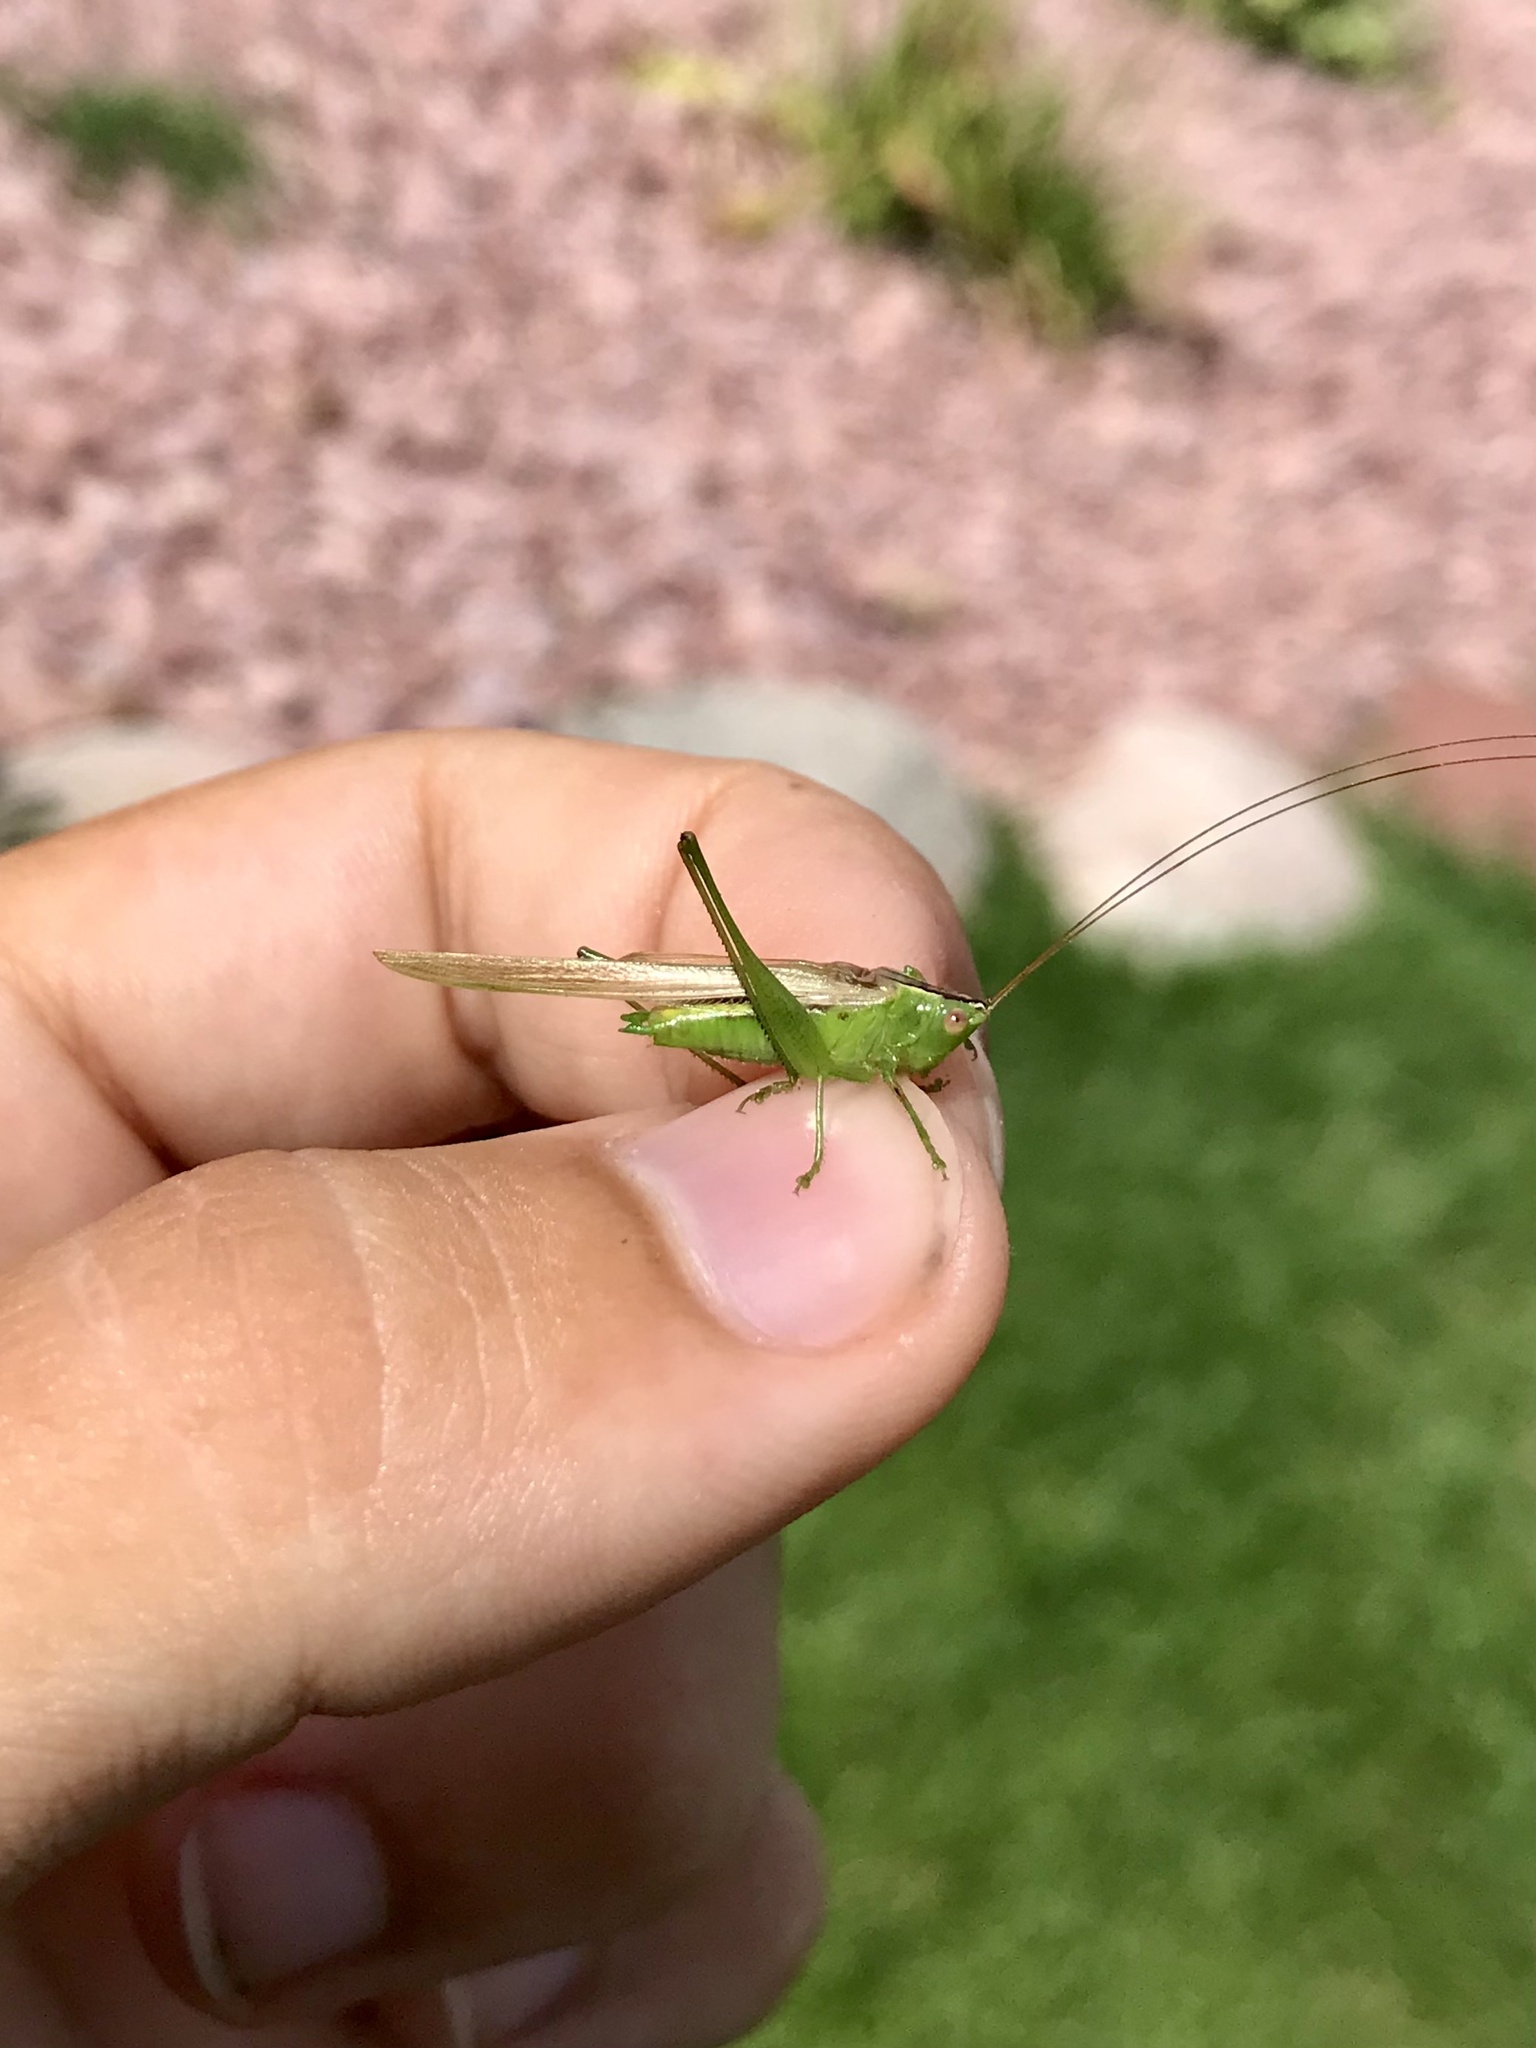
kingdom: Animalia
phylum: Arthropoda
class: Insecta
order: Orthoptera
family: Tettigoniidae
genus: Conocephalus
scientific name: Conocephalus fasciatus
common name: Slender meadow katydid
